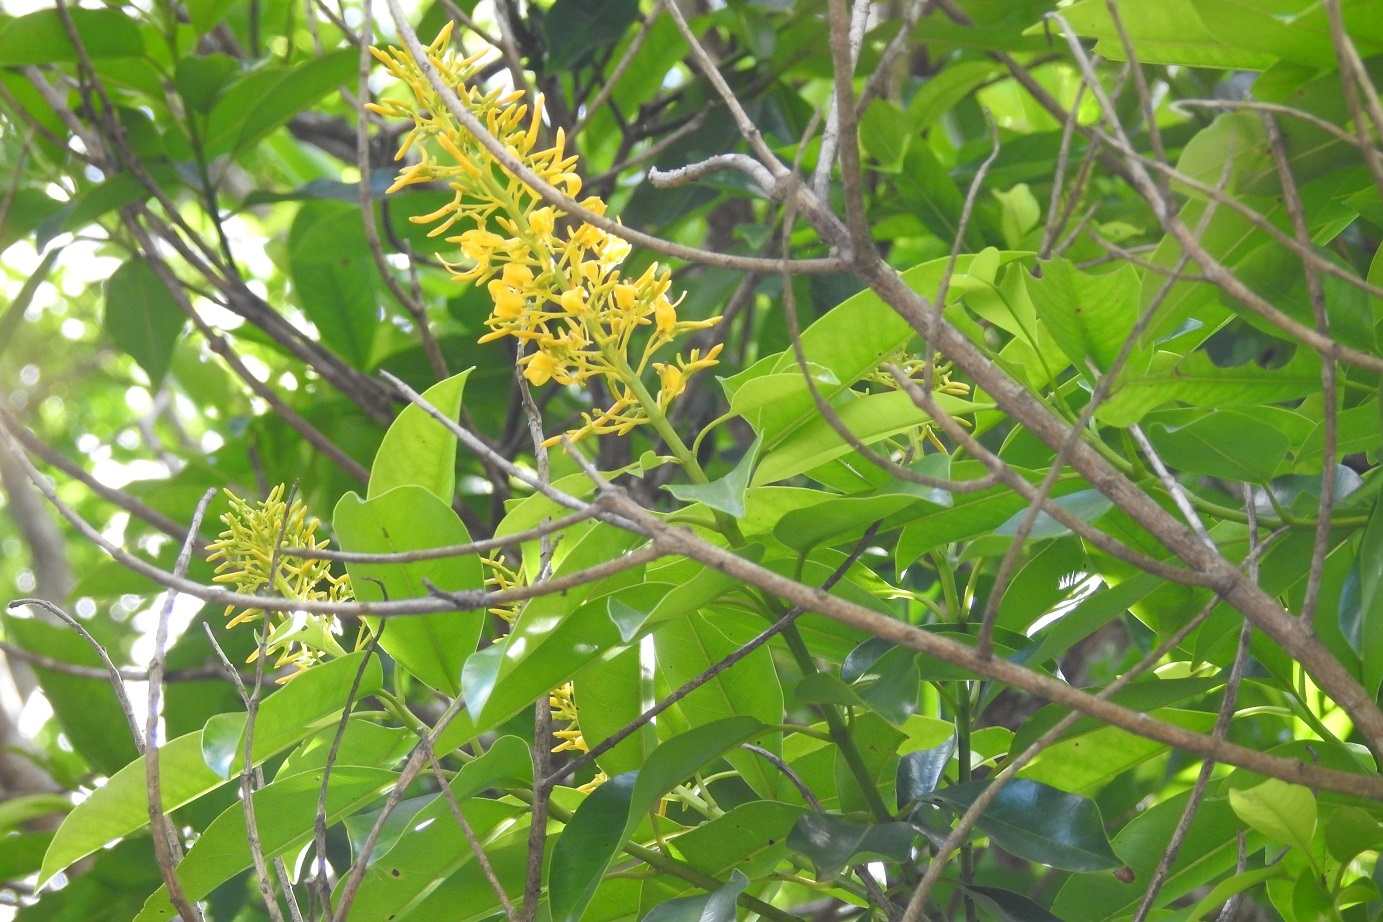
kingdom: Plantae
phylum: Tracheophyta
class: Magnoliopsida
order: Myrtales
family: Vochysiaceae
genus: Vochysia
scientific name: Vochysia guatemalensis
